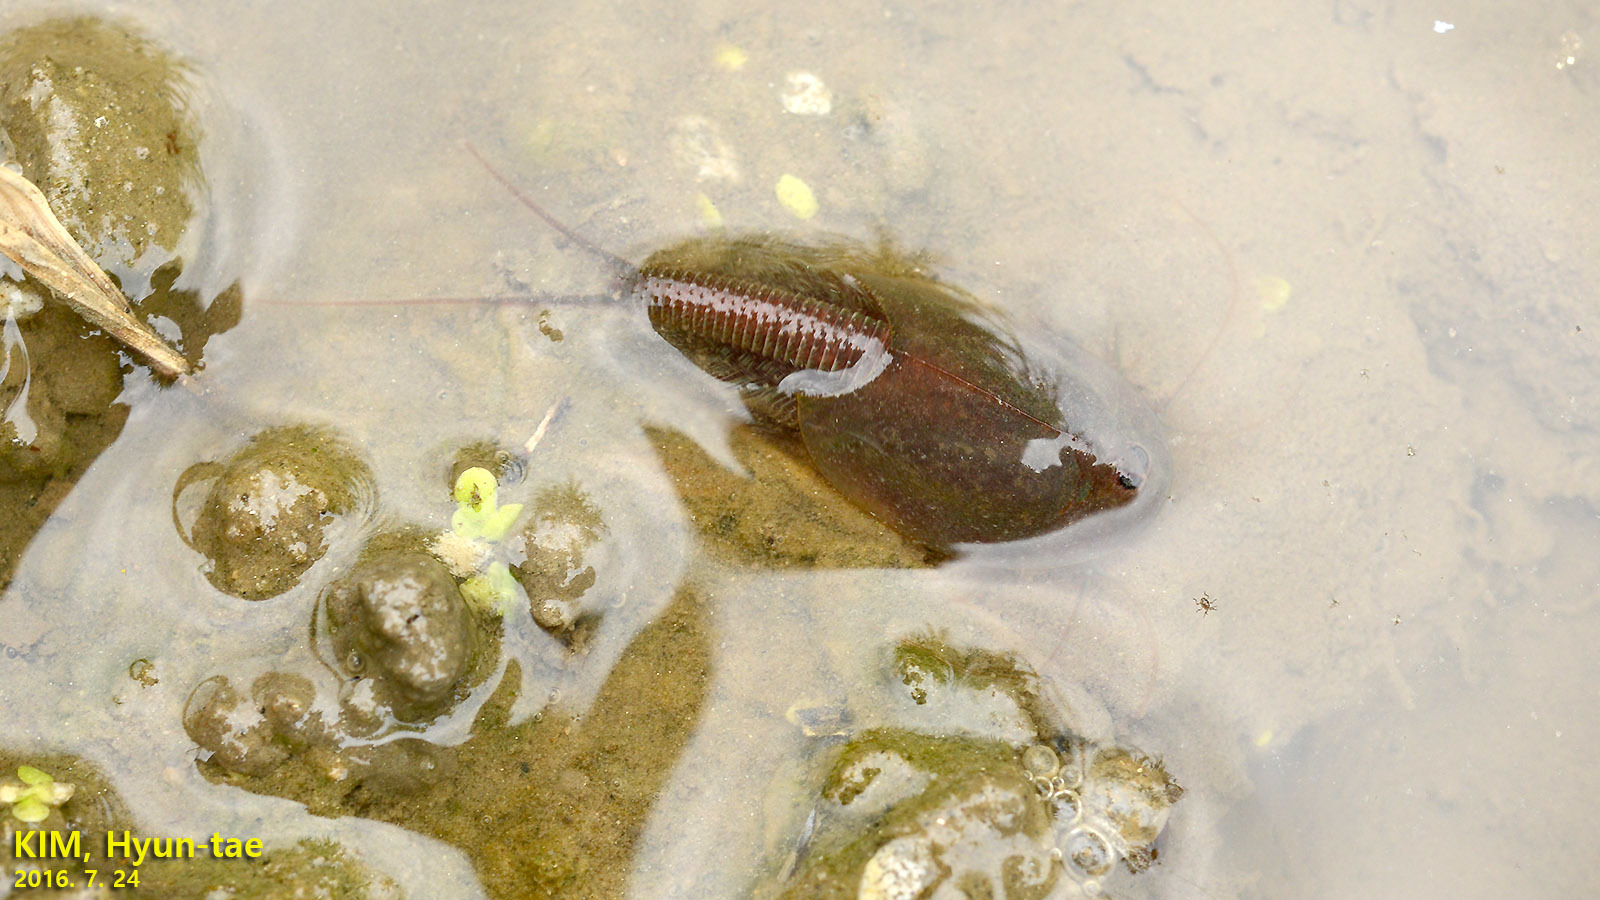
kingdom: Animalia
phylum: Arthropoda
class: Branchiopoda
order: Notostraca
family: Triopsidae
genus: Triops
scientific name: Triops granarius
